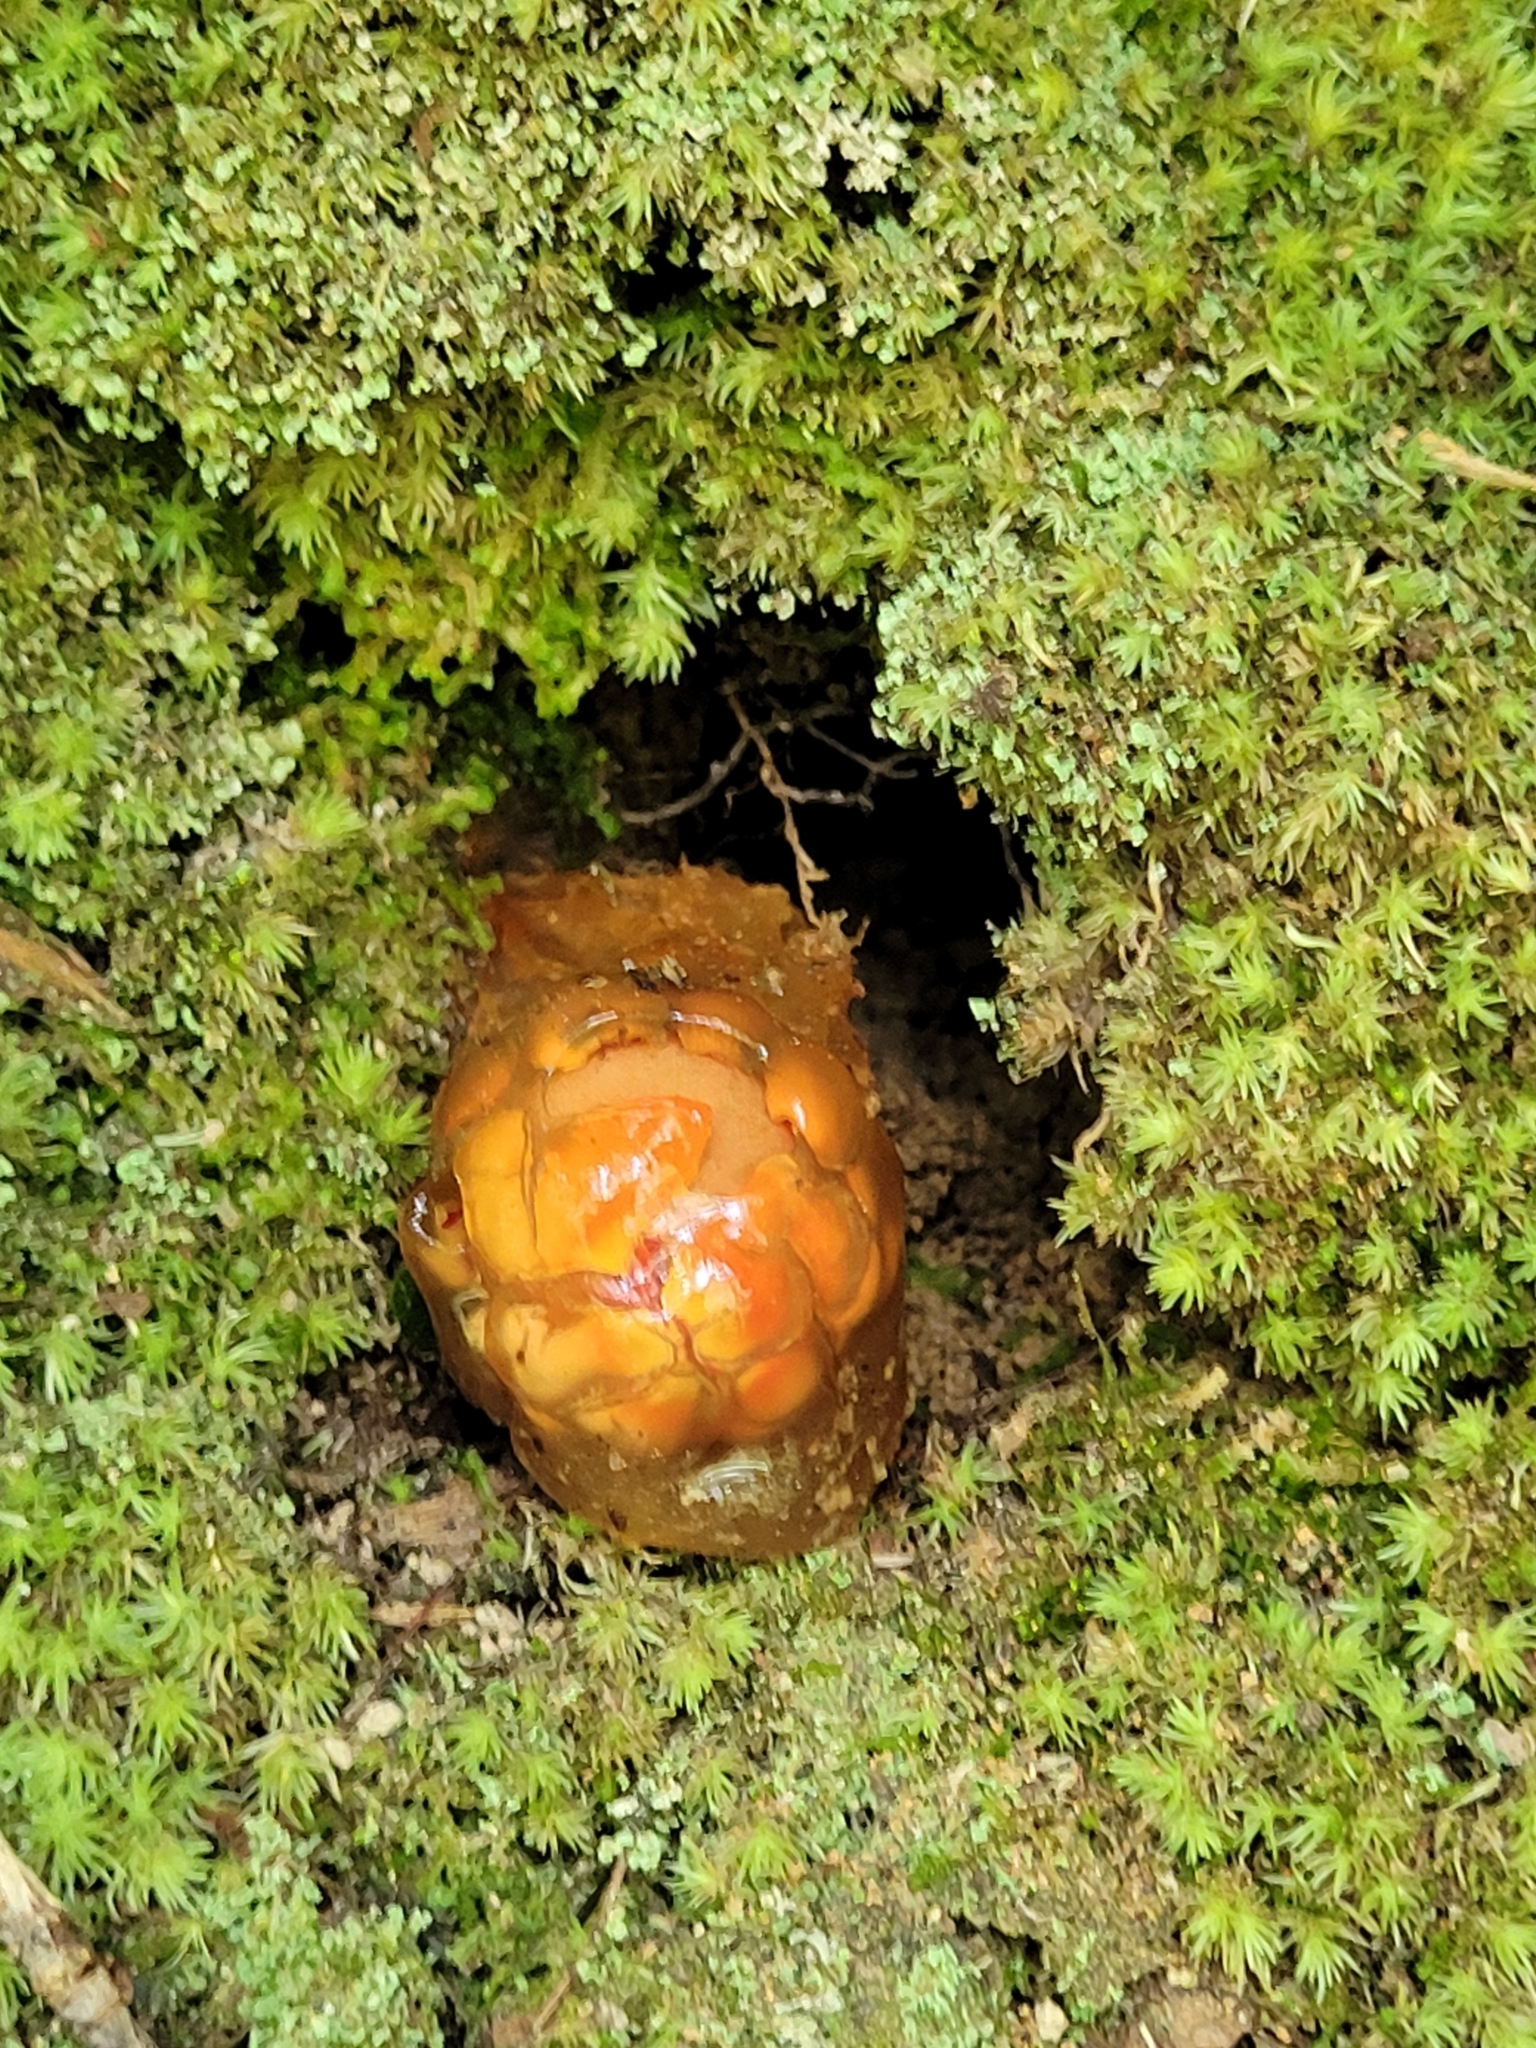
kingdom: Fungi
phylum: Basidiomycota
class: Agaricomycetes
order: Boletales
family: Calostomataceae
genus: Calostoma
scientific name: Calostoma cinnabarinum
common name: Stalked puffball-in-aspic
